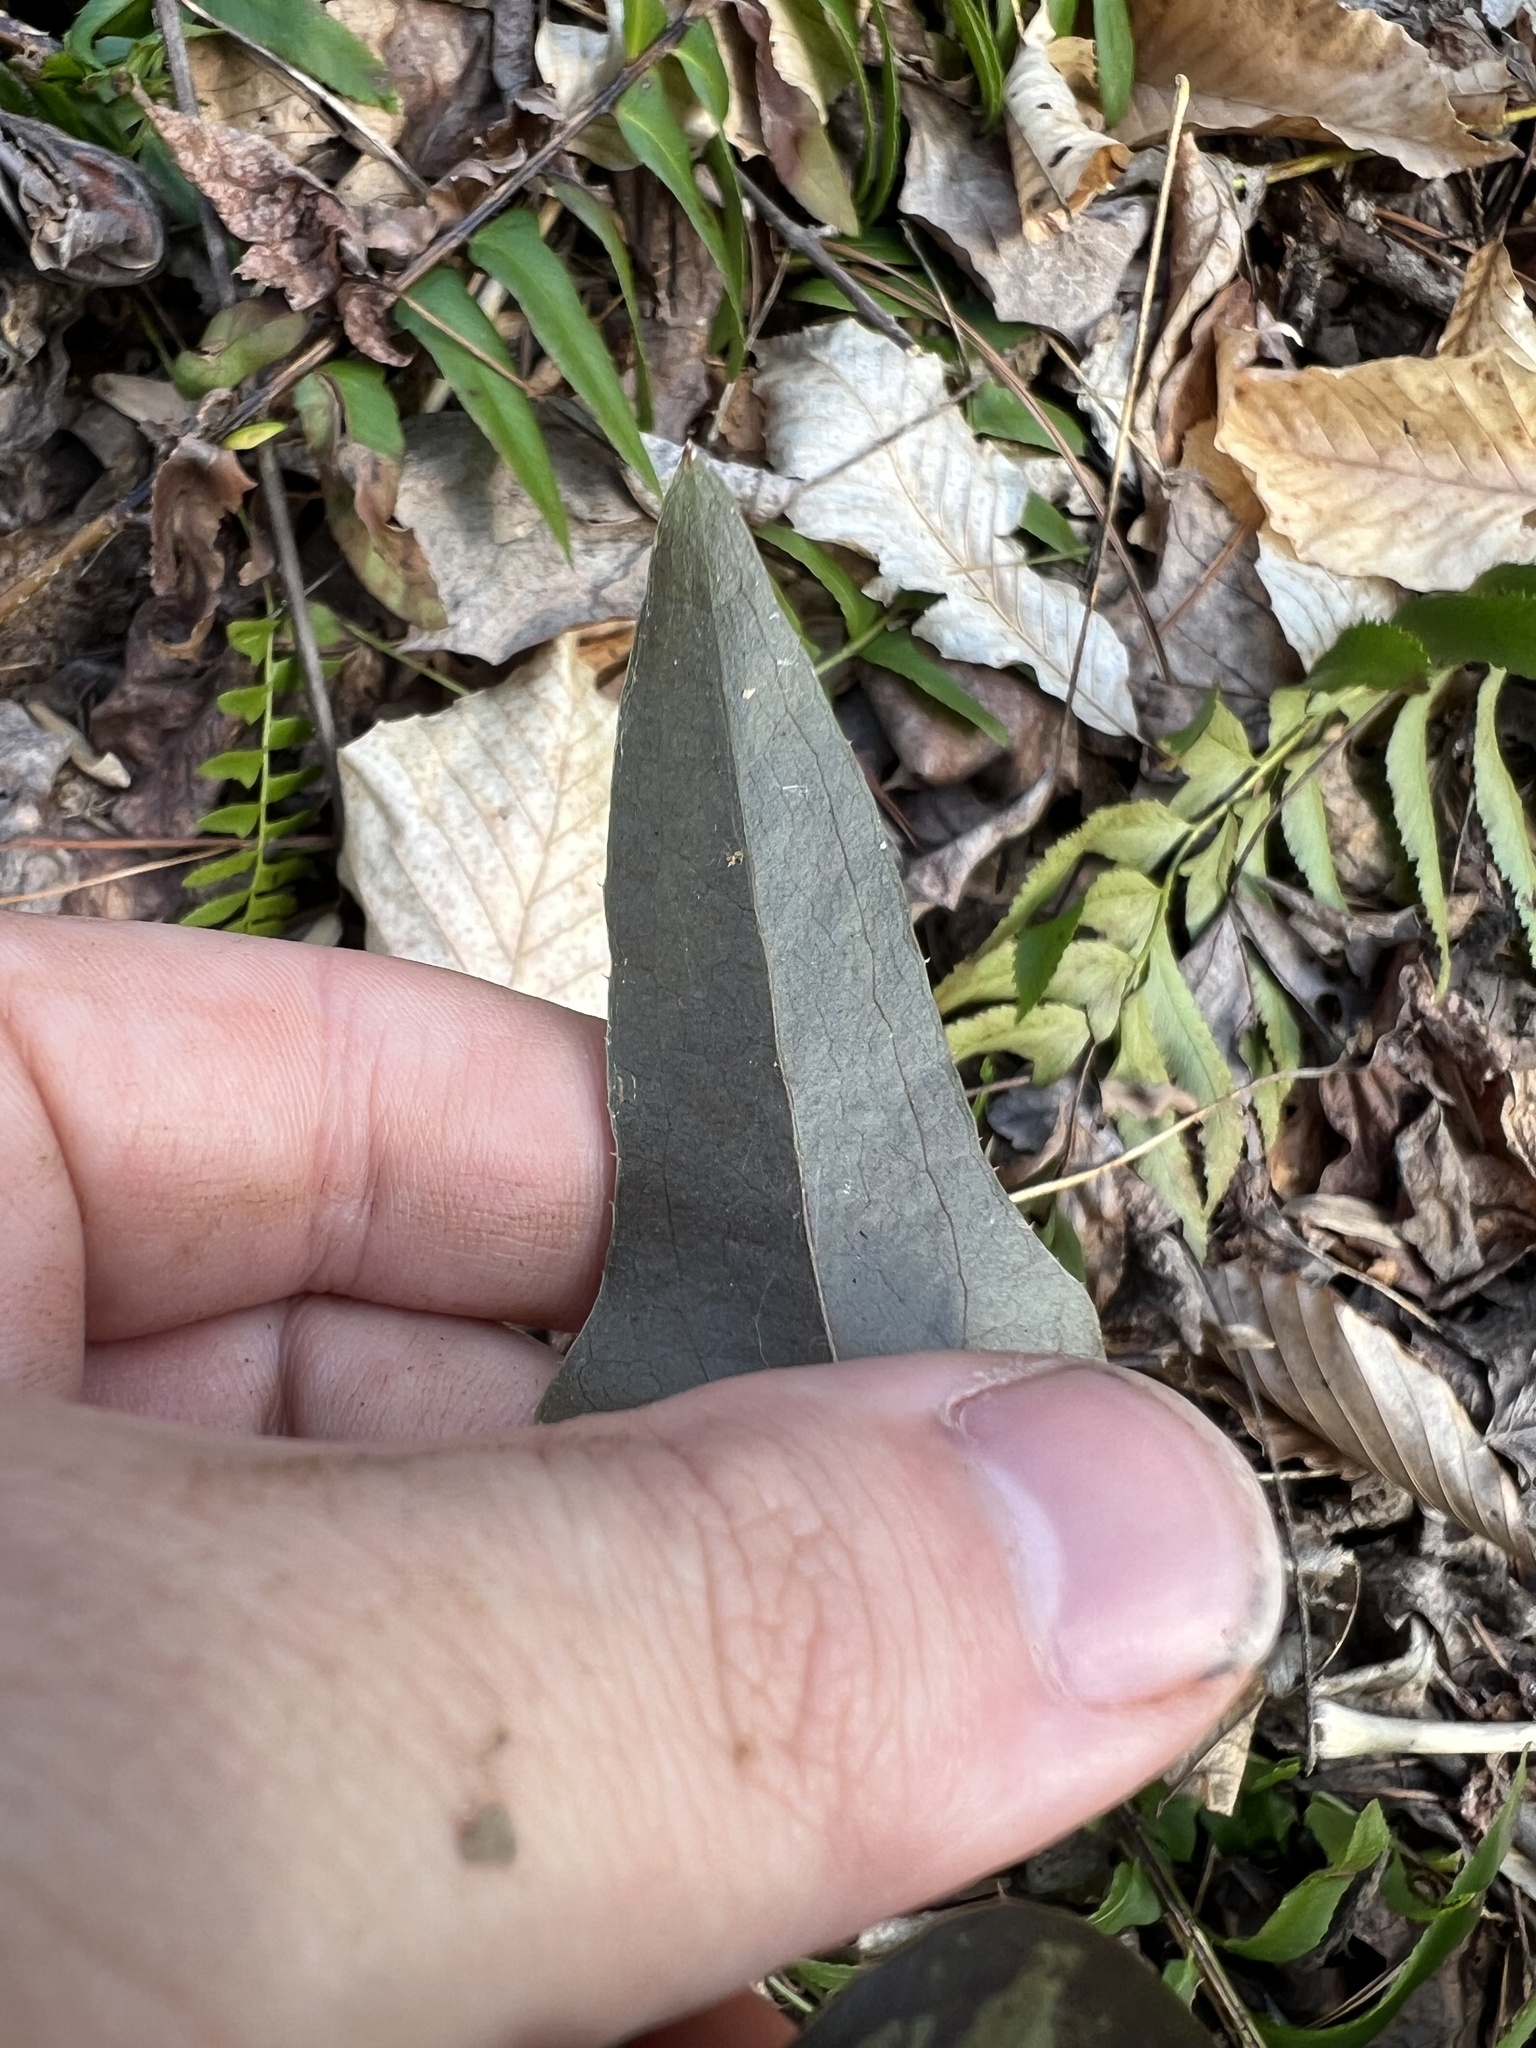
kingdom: Plantae
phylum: Tracheophyta
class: Liliopsida
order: Liliales
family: Smilacaceae
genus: Smilax
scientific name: Smilax bona-nox
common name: Catbrier
